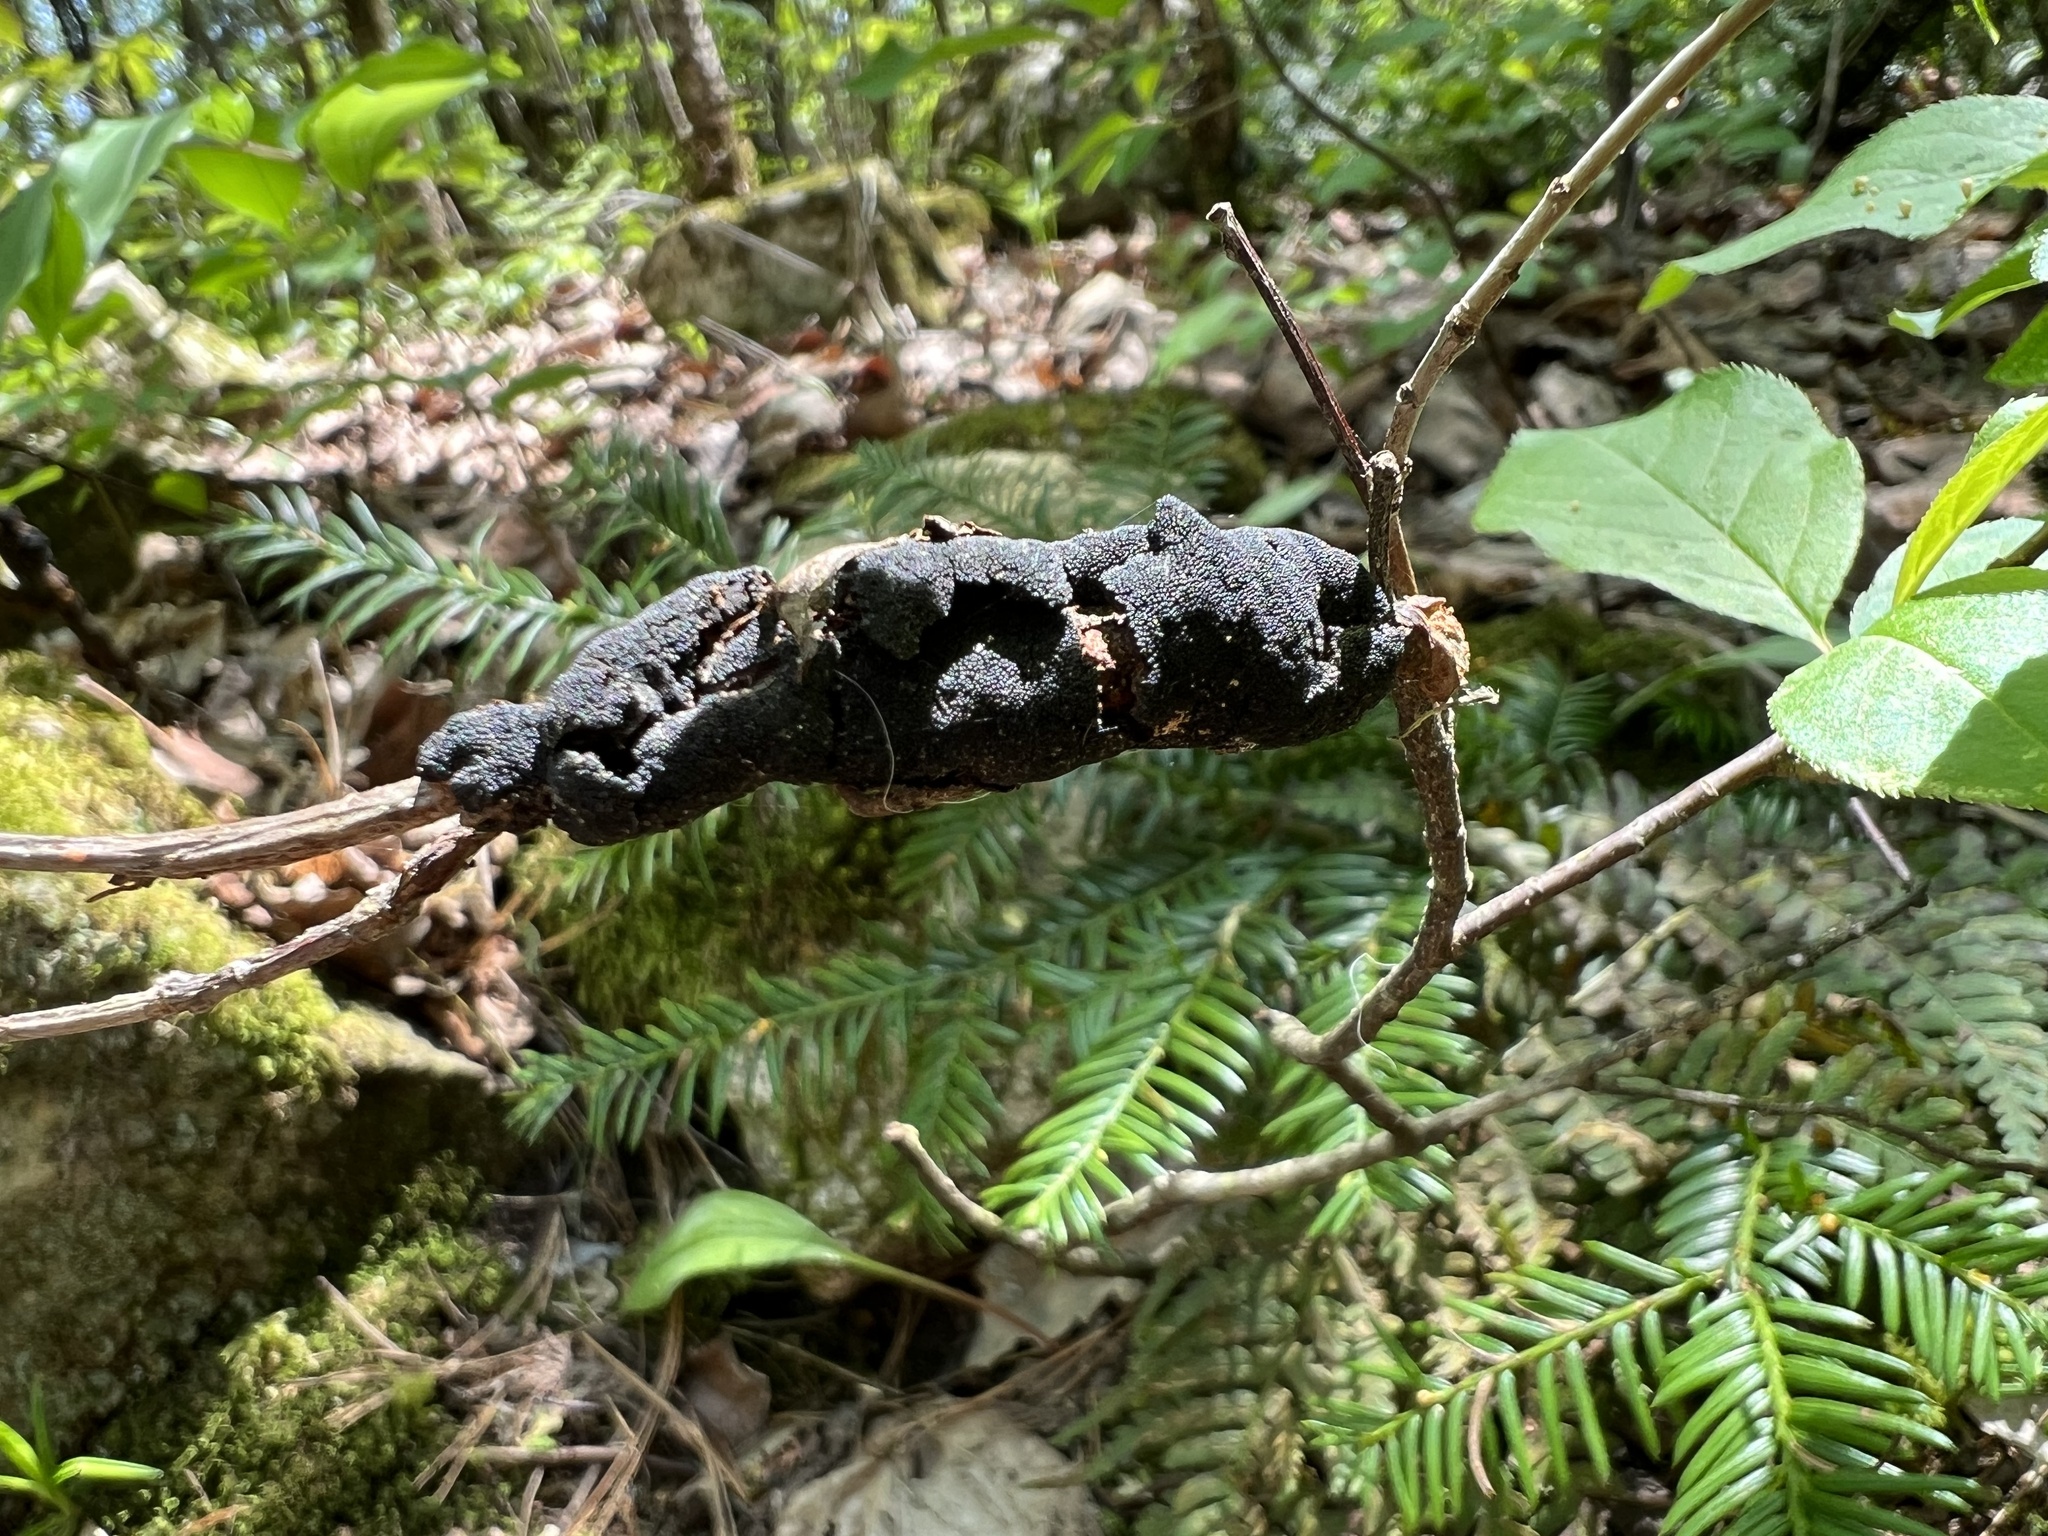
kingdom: Fungi
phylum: Ascomycota
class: Dothideomycetes
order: Venturiales
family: Venturiaceae
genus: Apiosporina
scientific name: Apiosporina morbosa
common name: Black knot
